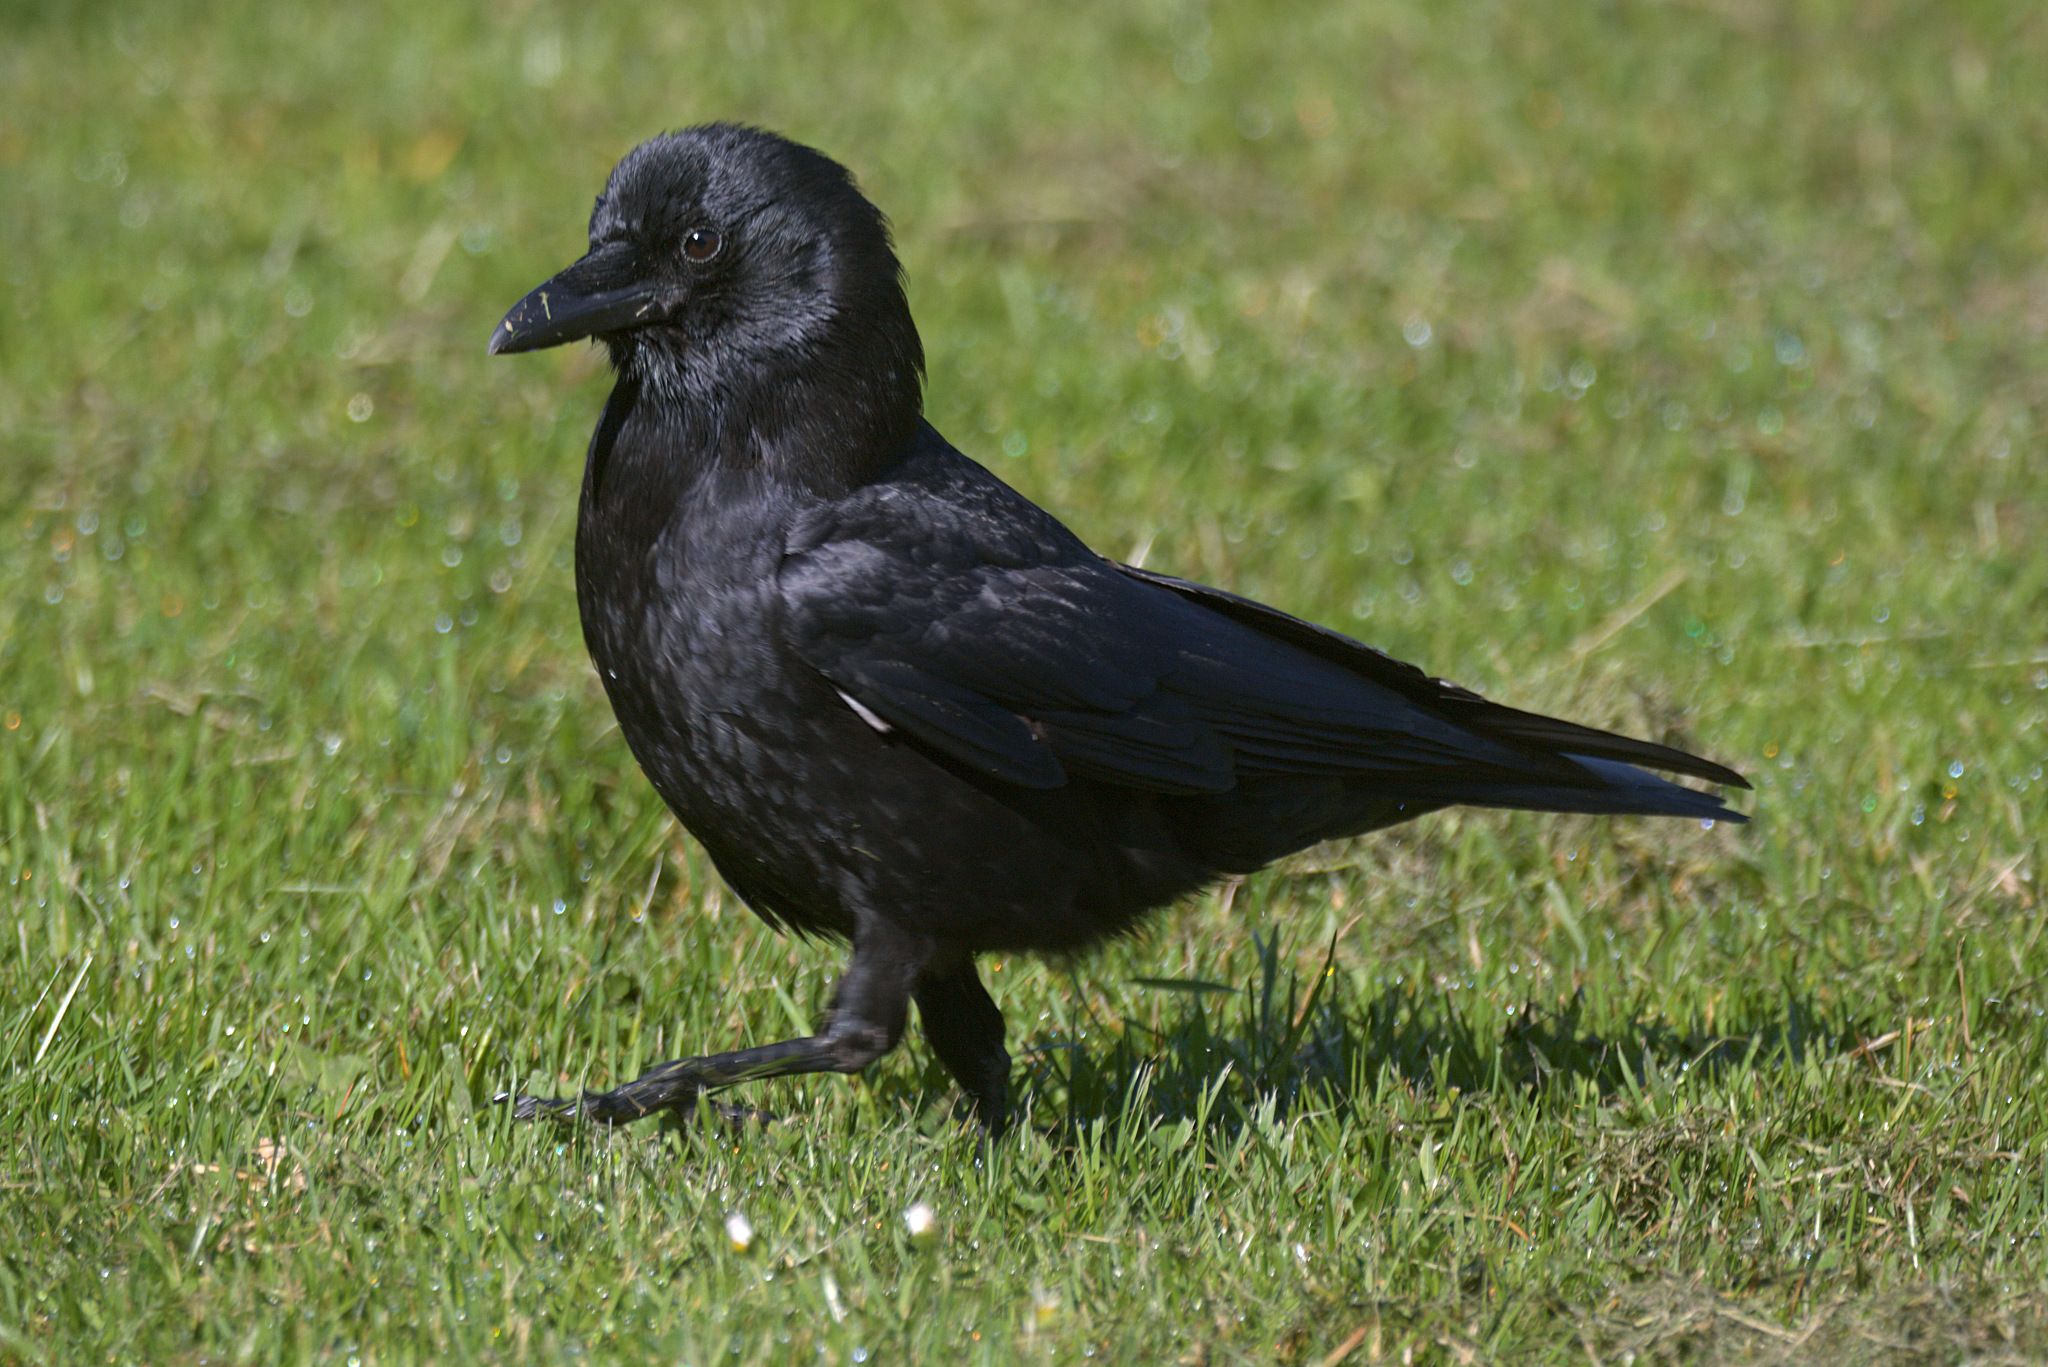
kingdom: Animalia
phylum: Chordata
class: Aves
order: Passeriformes
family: Corvidae
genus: Corvus
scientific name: Corvus brachyrhynchos
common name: American crow
